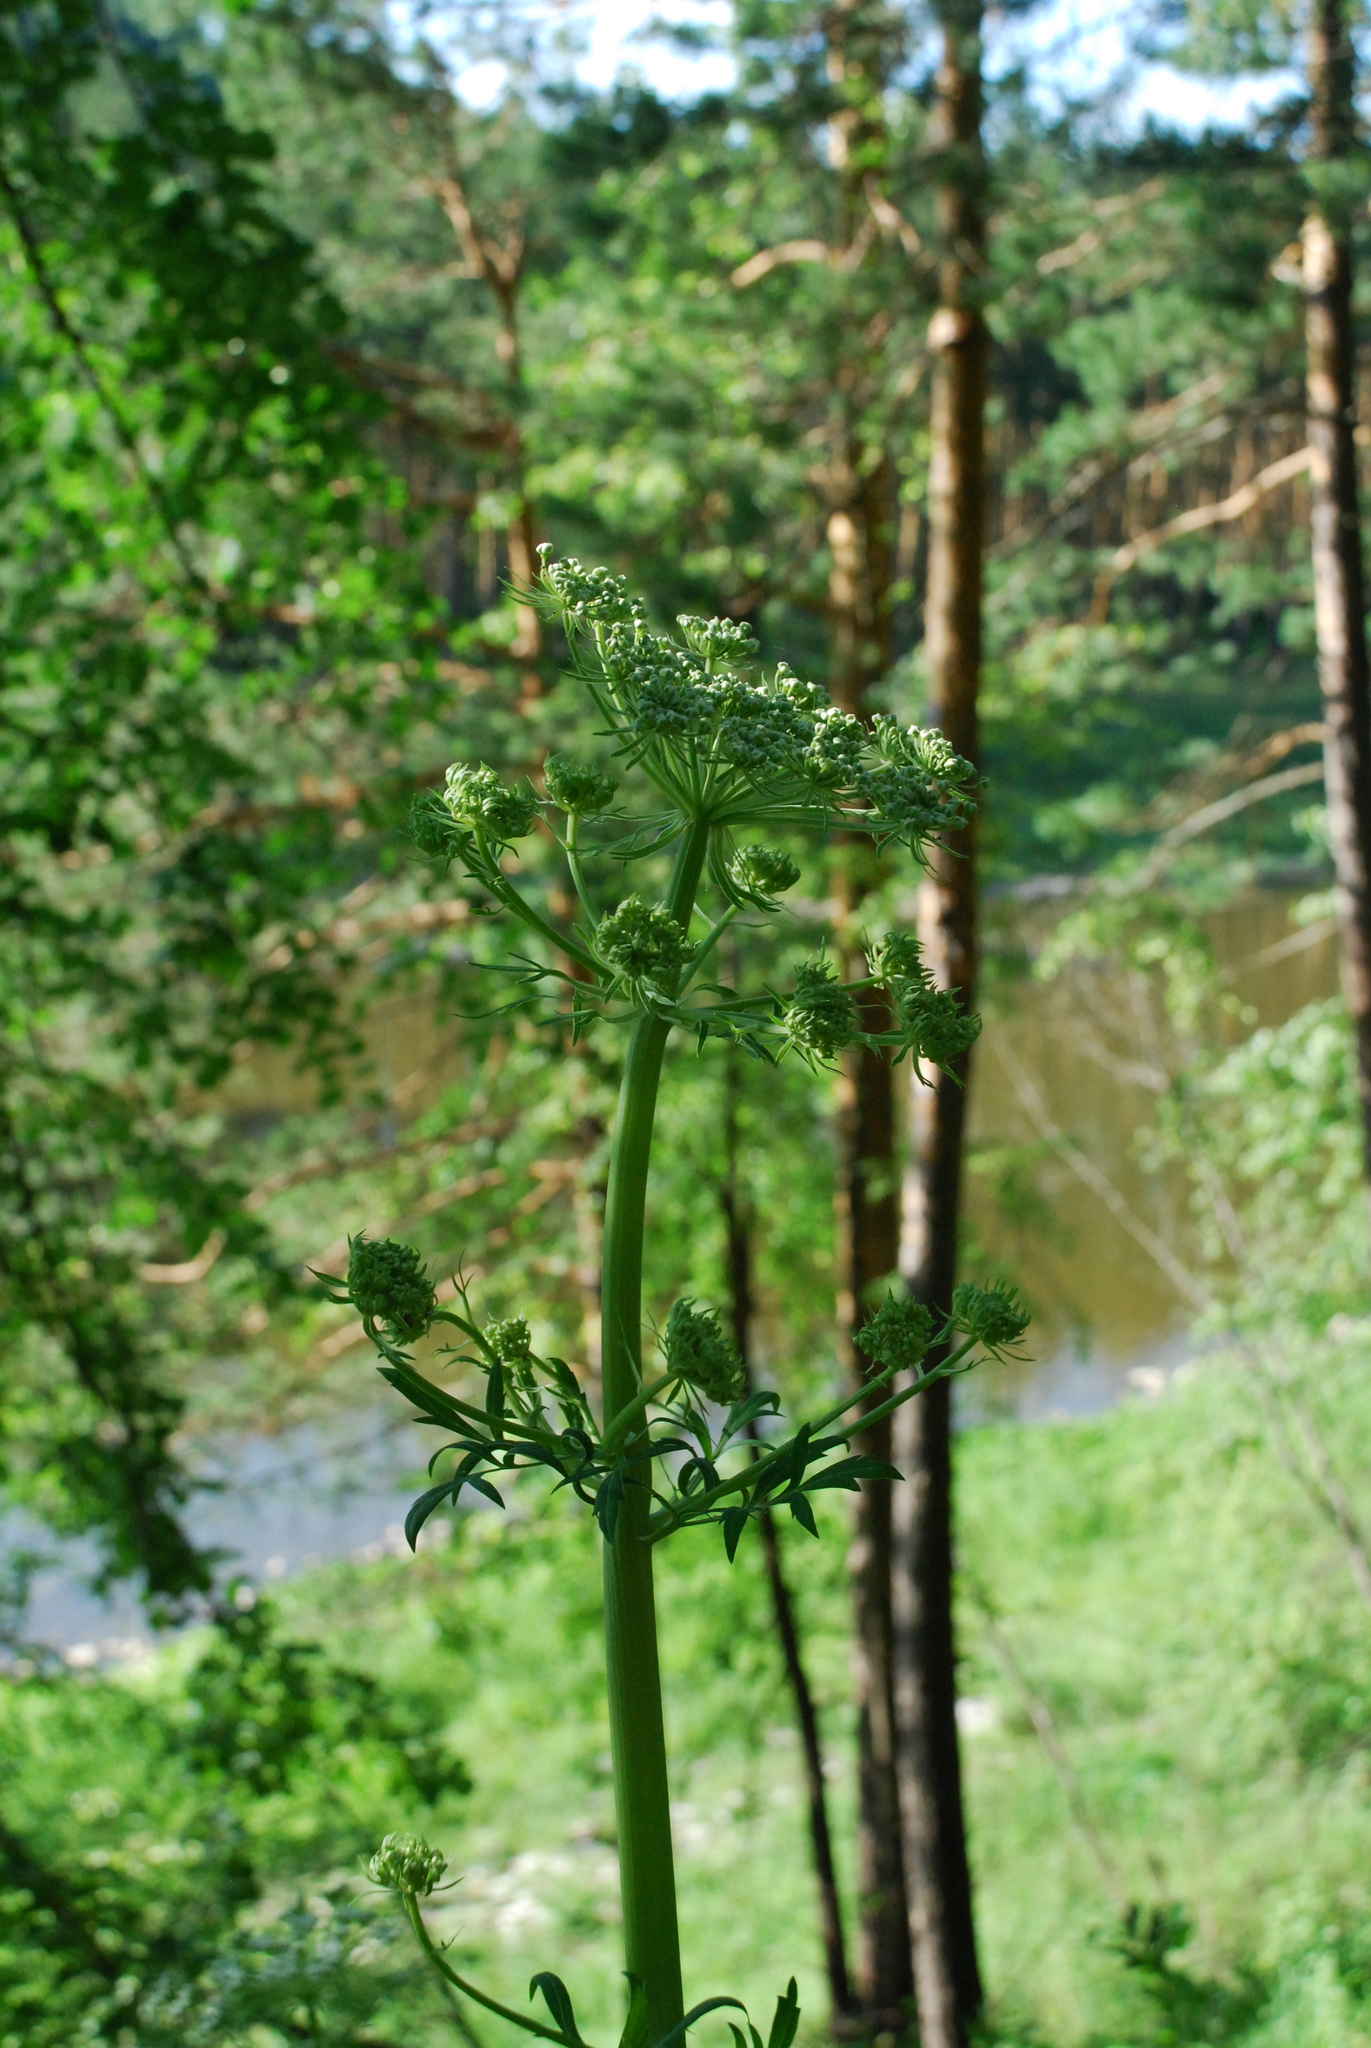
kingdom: Plantae
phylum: Tracheophyta
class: Magnoliopsida
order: Apiales
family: Apiaceae
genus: Pleurospermum
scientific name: Pleurospermum uralense
